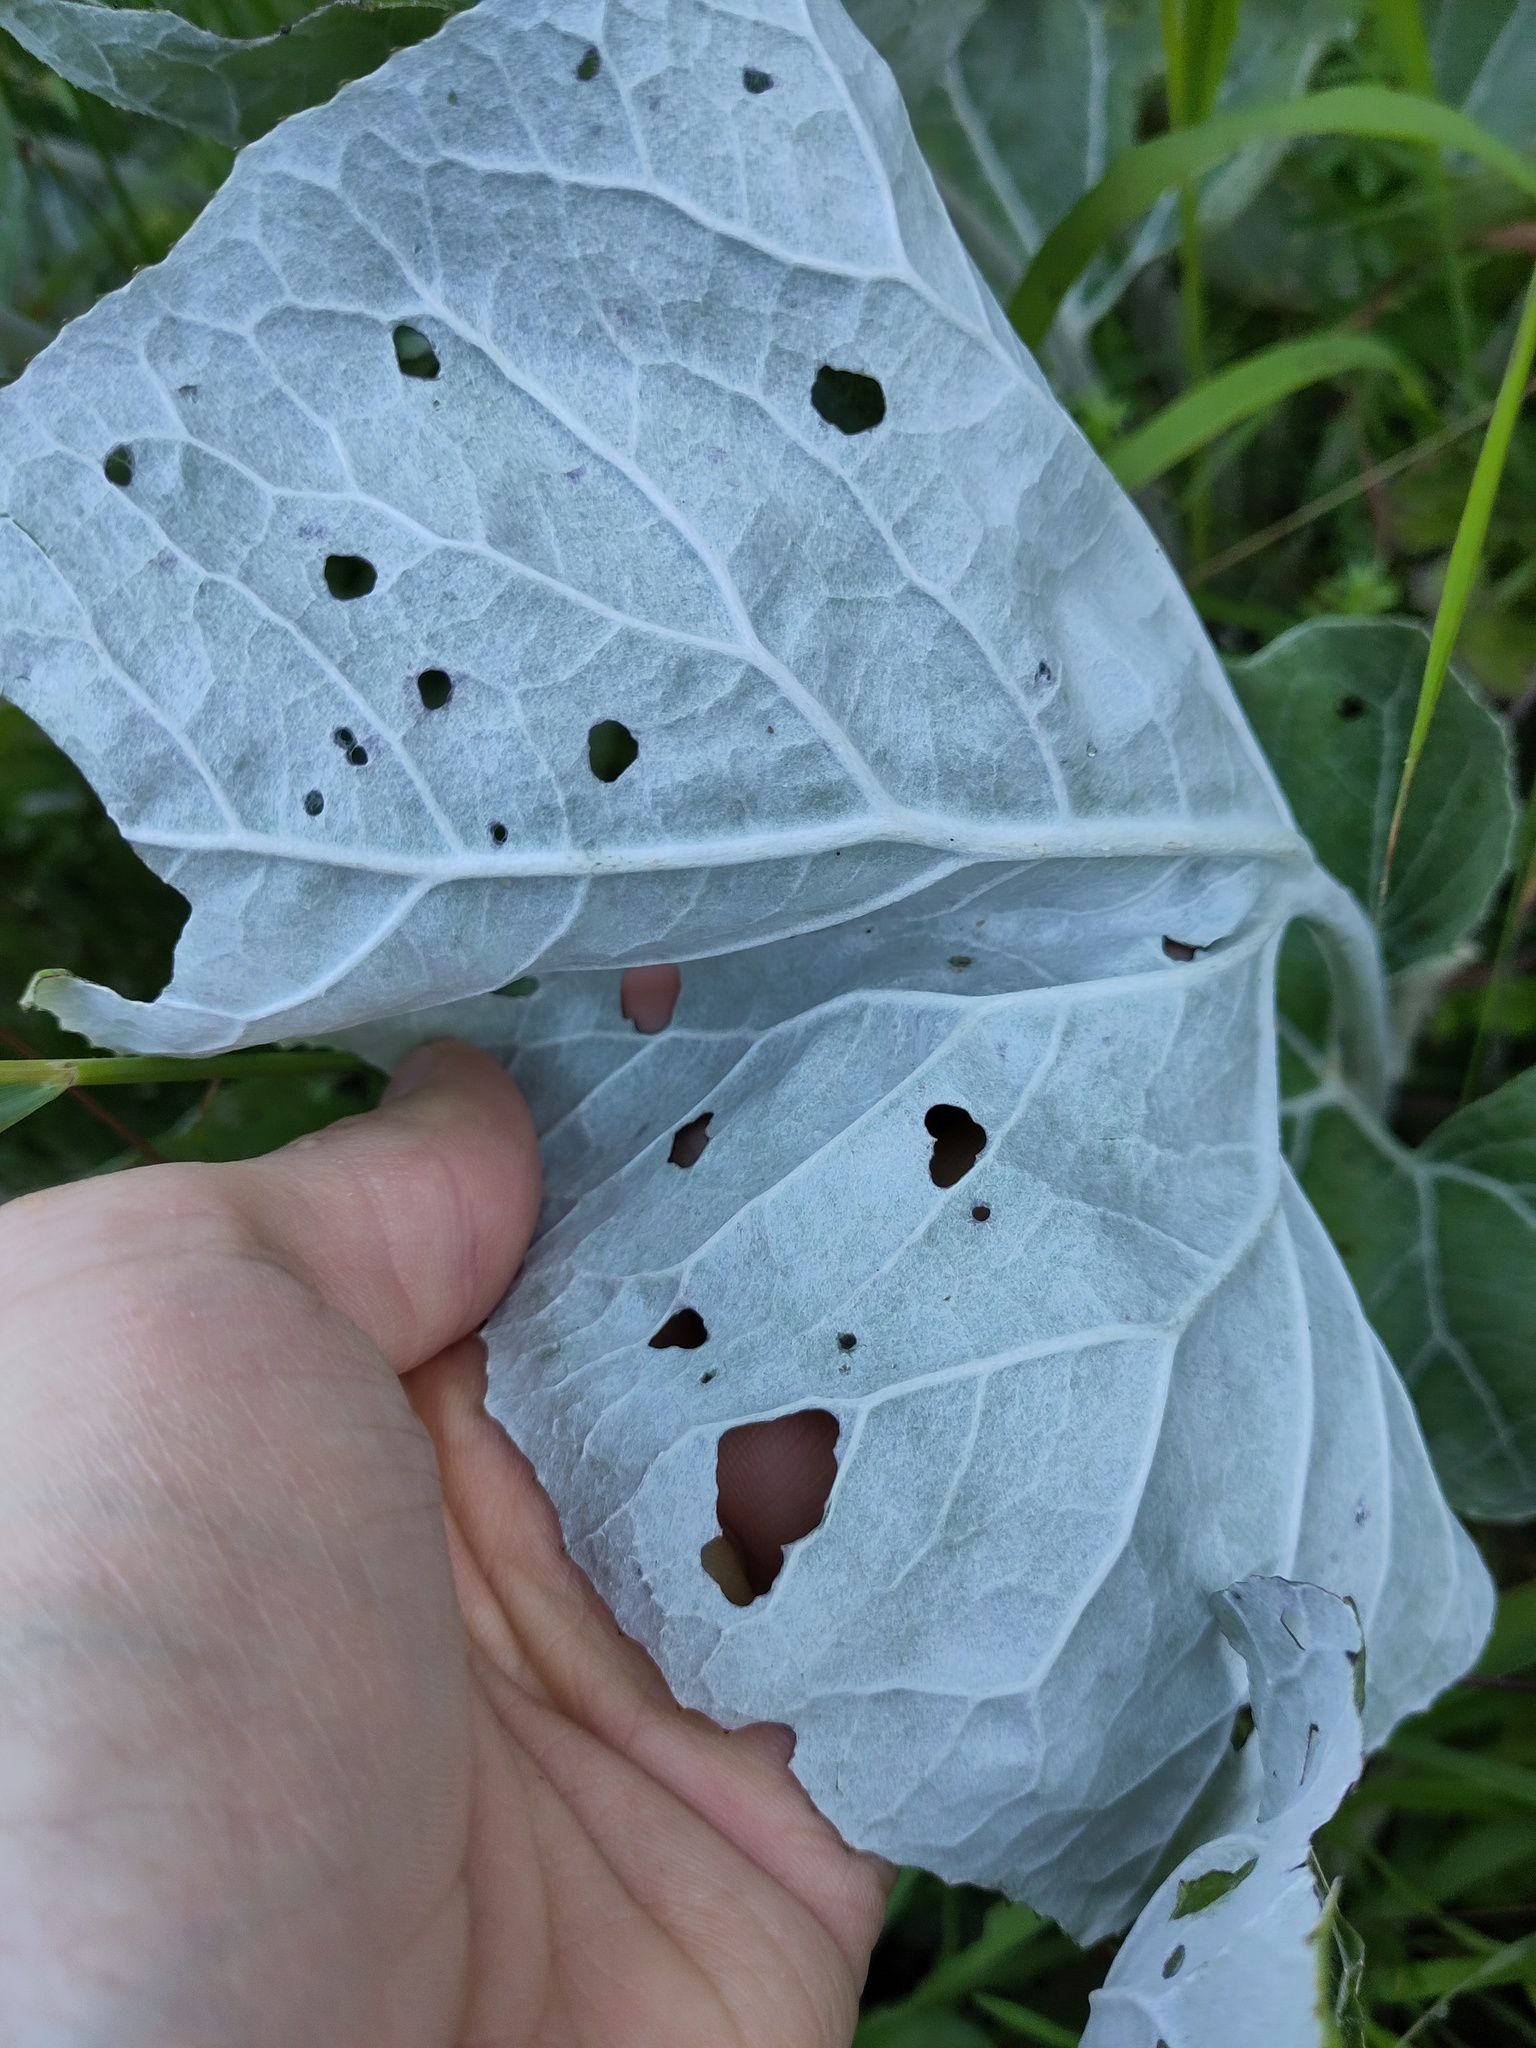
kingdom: Plantae
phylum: Tracheophyta
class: Magnoliopsida
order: Asterales
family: Asteraceae
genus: Petasites
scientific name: Petasites paradoxus
